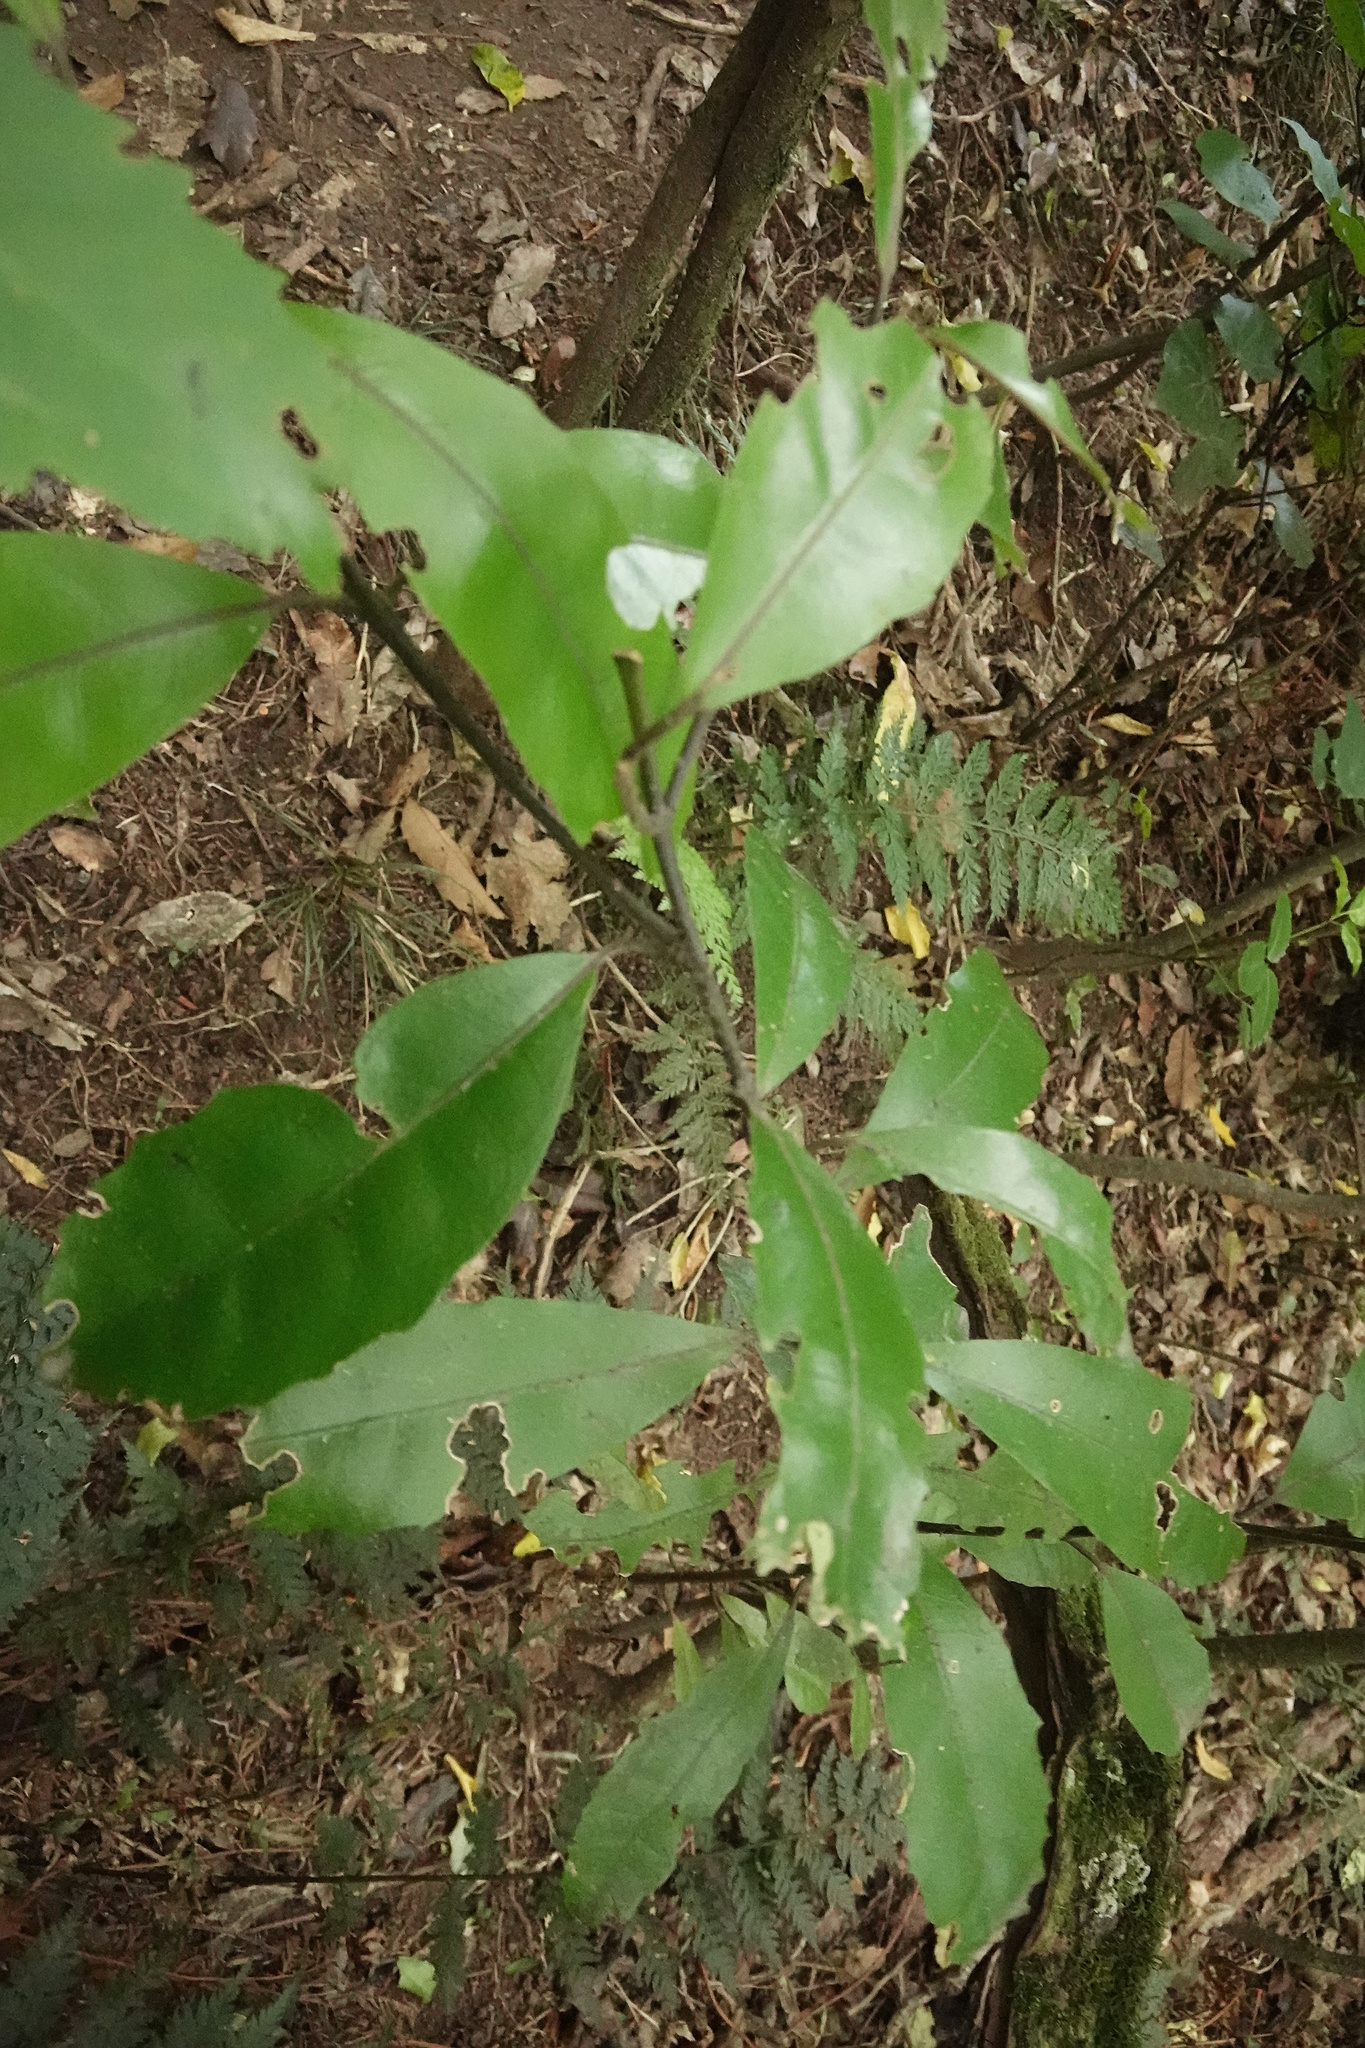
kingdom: Plantae
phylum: Tracheophyta
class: Magnoliopsida
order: Laurales
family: Monimiaceae
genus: Hedycarya
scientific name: Hedycarya arborea
